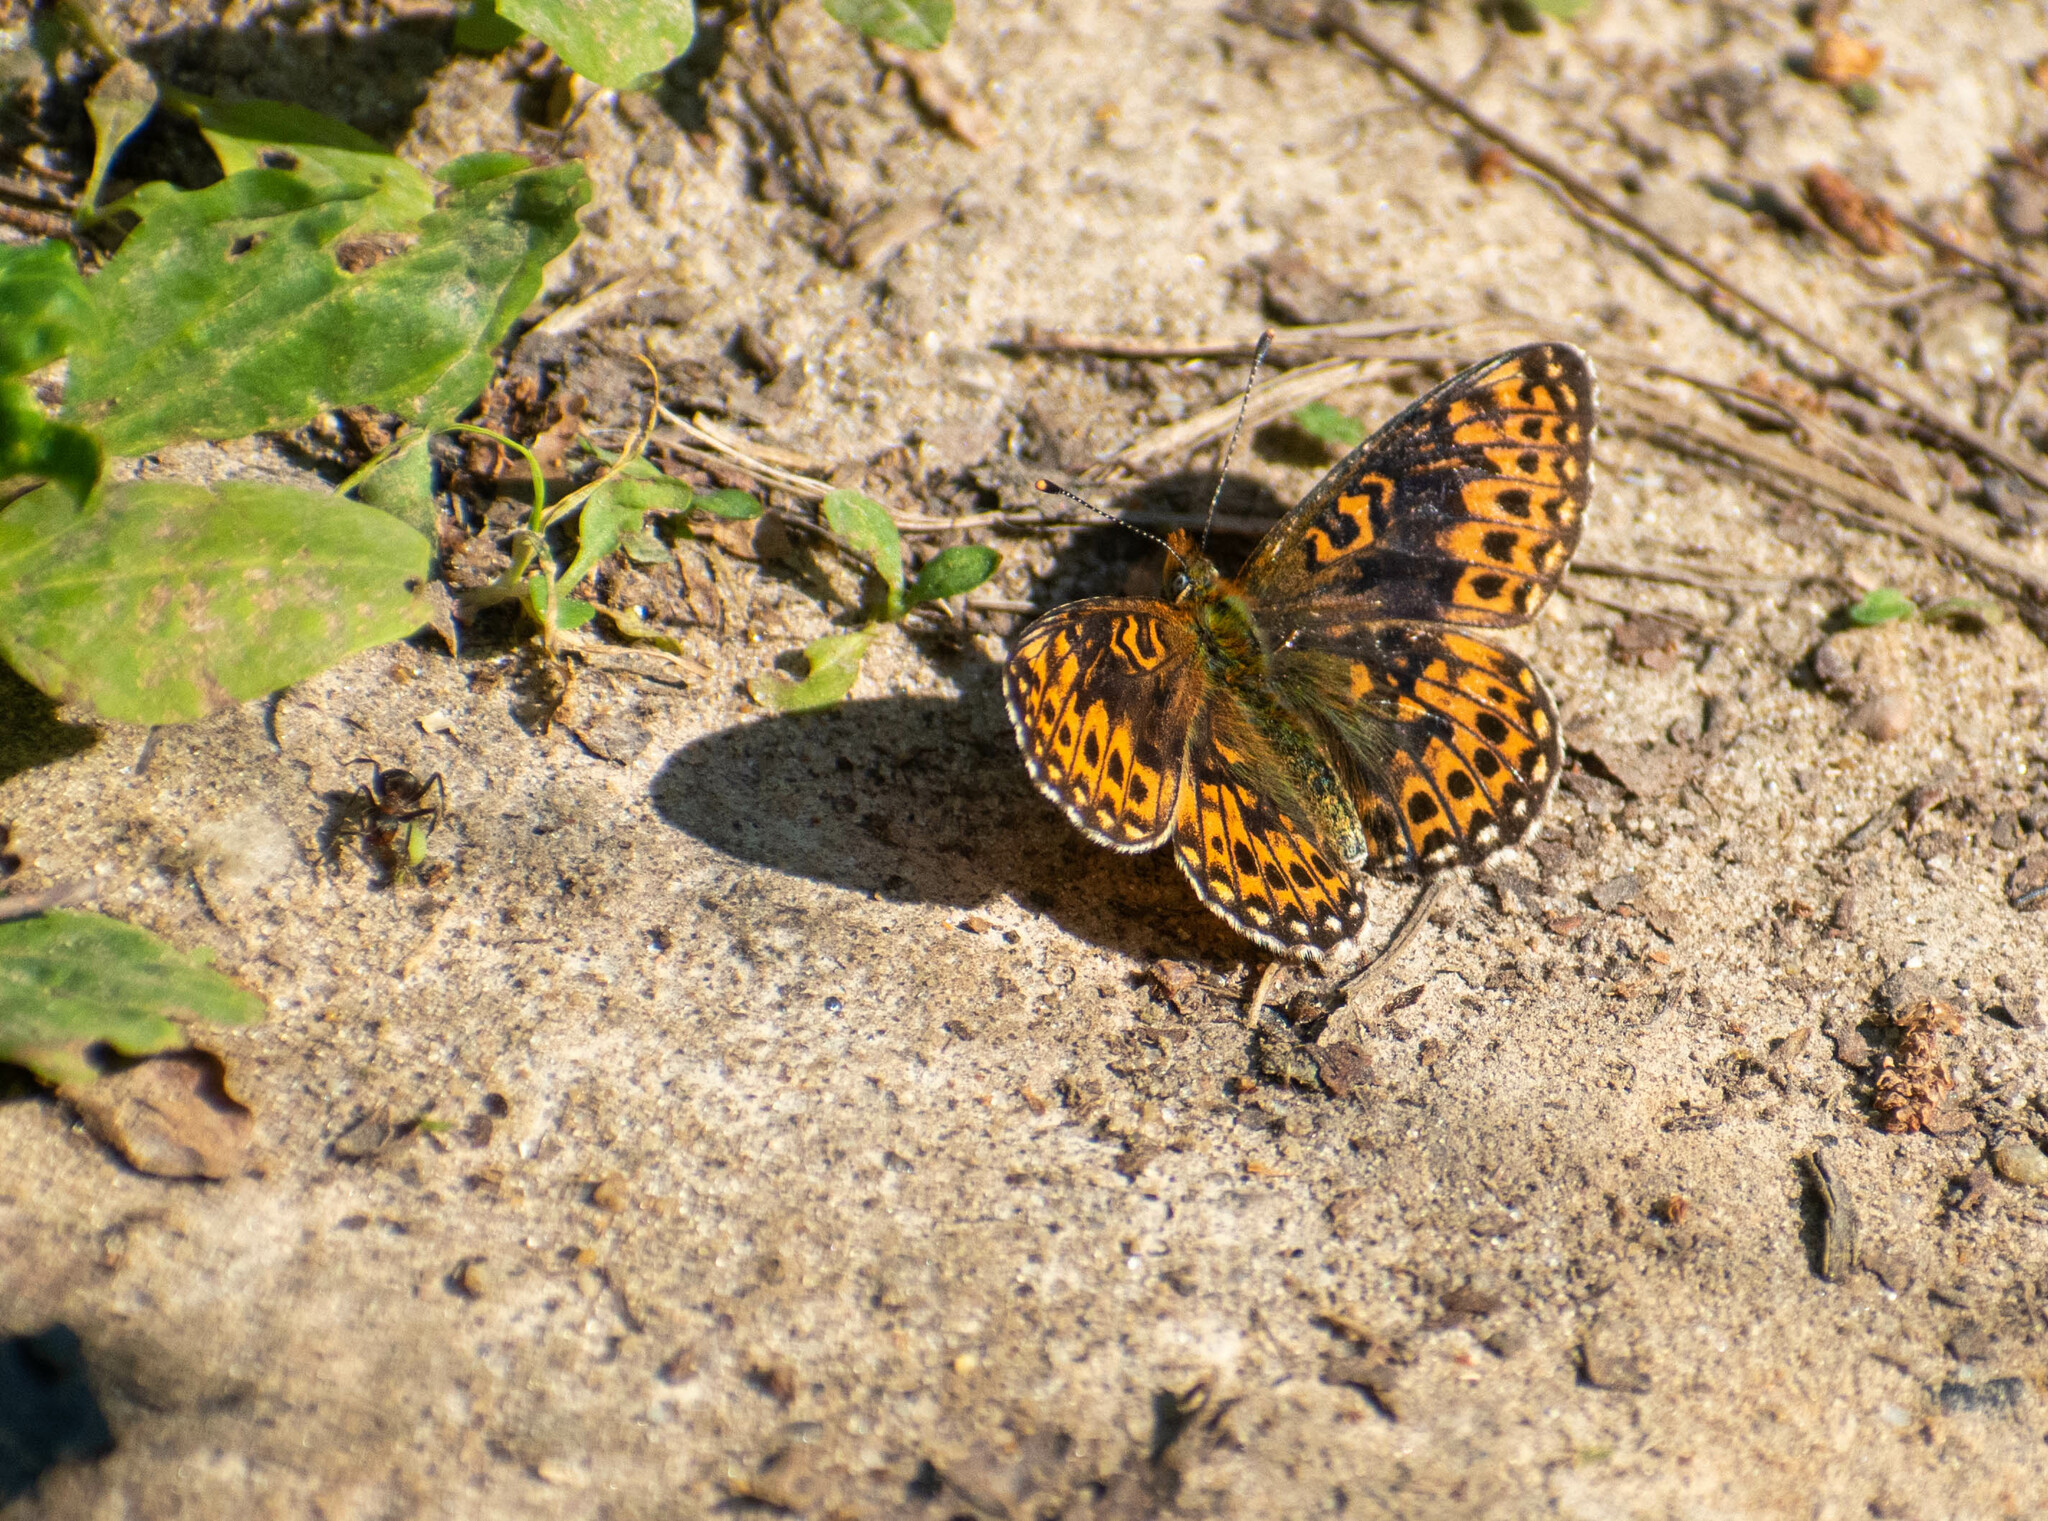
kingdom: Animalia
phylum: Arthropoda
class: Insecta
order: Lepidoptera
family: Nymphalidae
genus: Clossiana
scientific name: Clossiana euphrosyne
